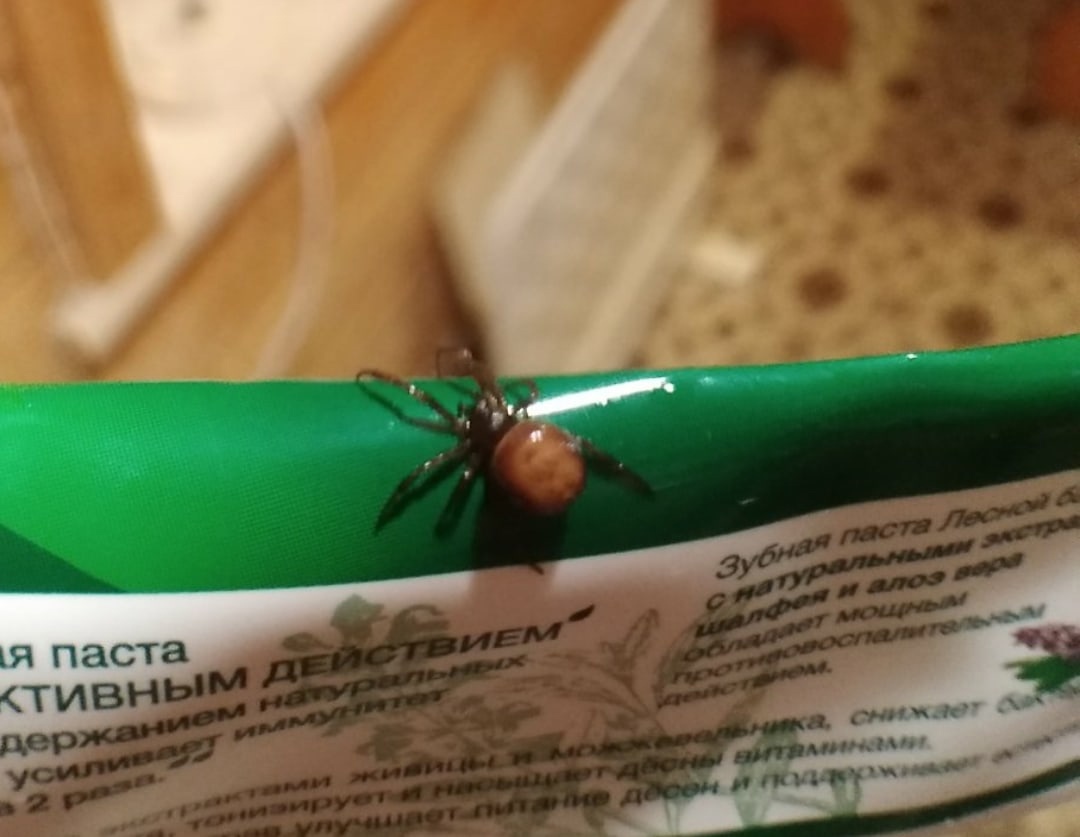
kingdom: Animalia
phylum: Arthropoda
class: Arachnida
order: Araneae
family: Theridiidae
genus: Steatoda
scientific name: Steatoda bipunctata
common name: False widow
